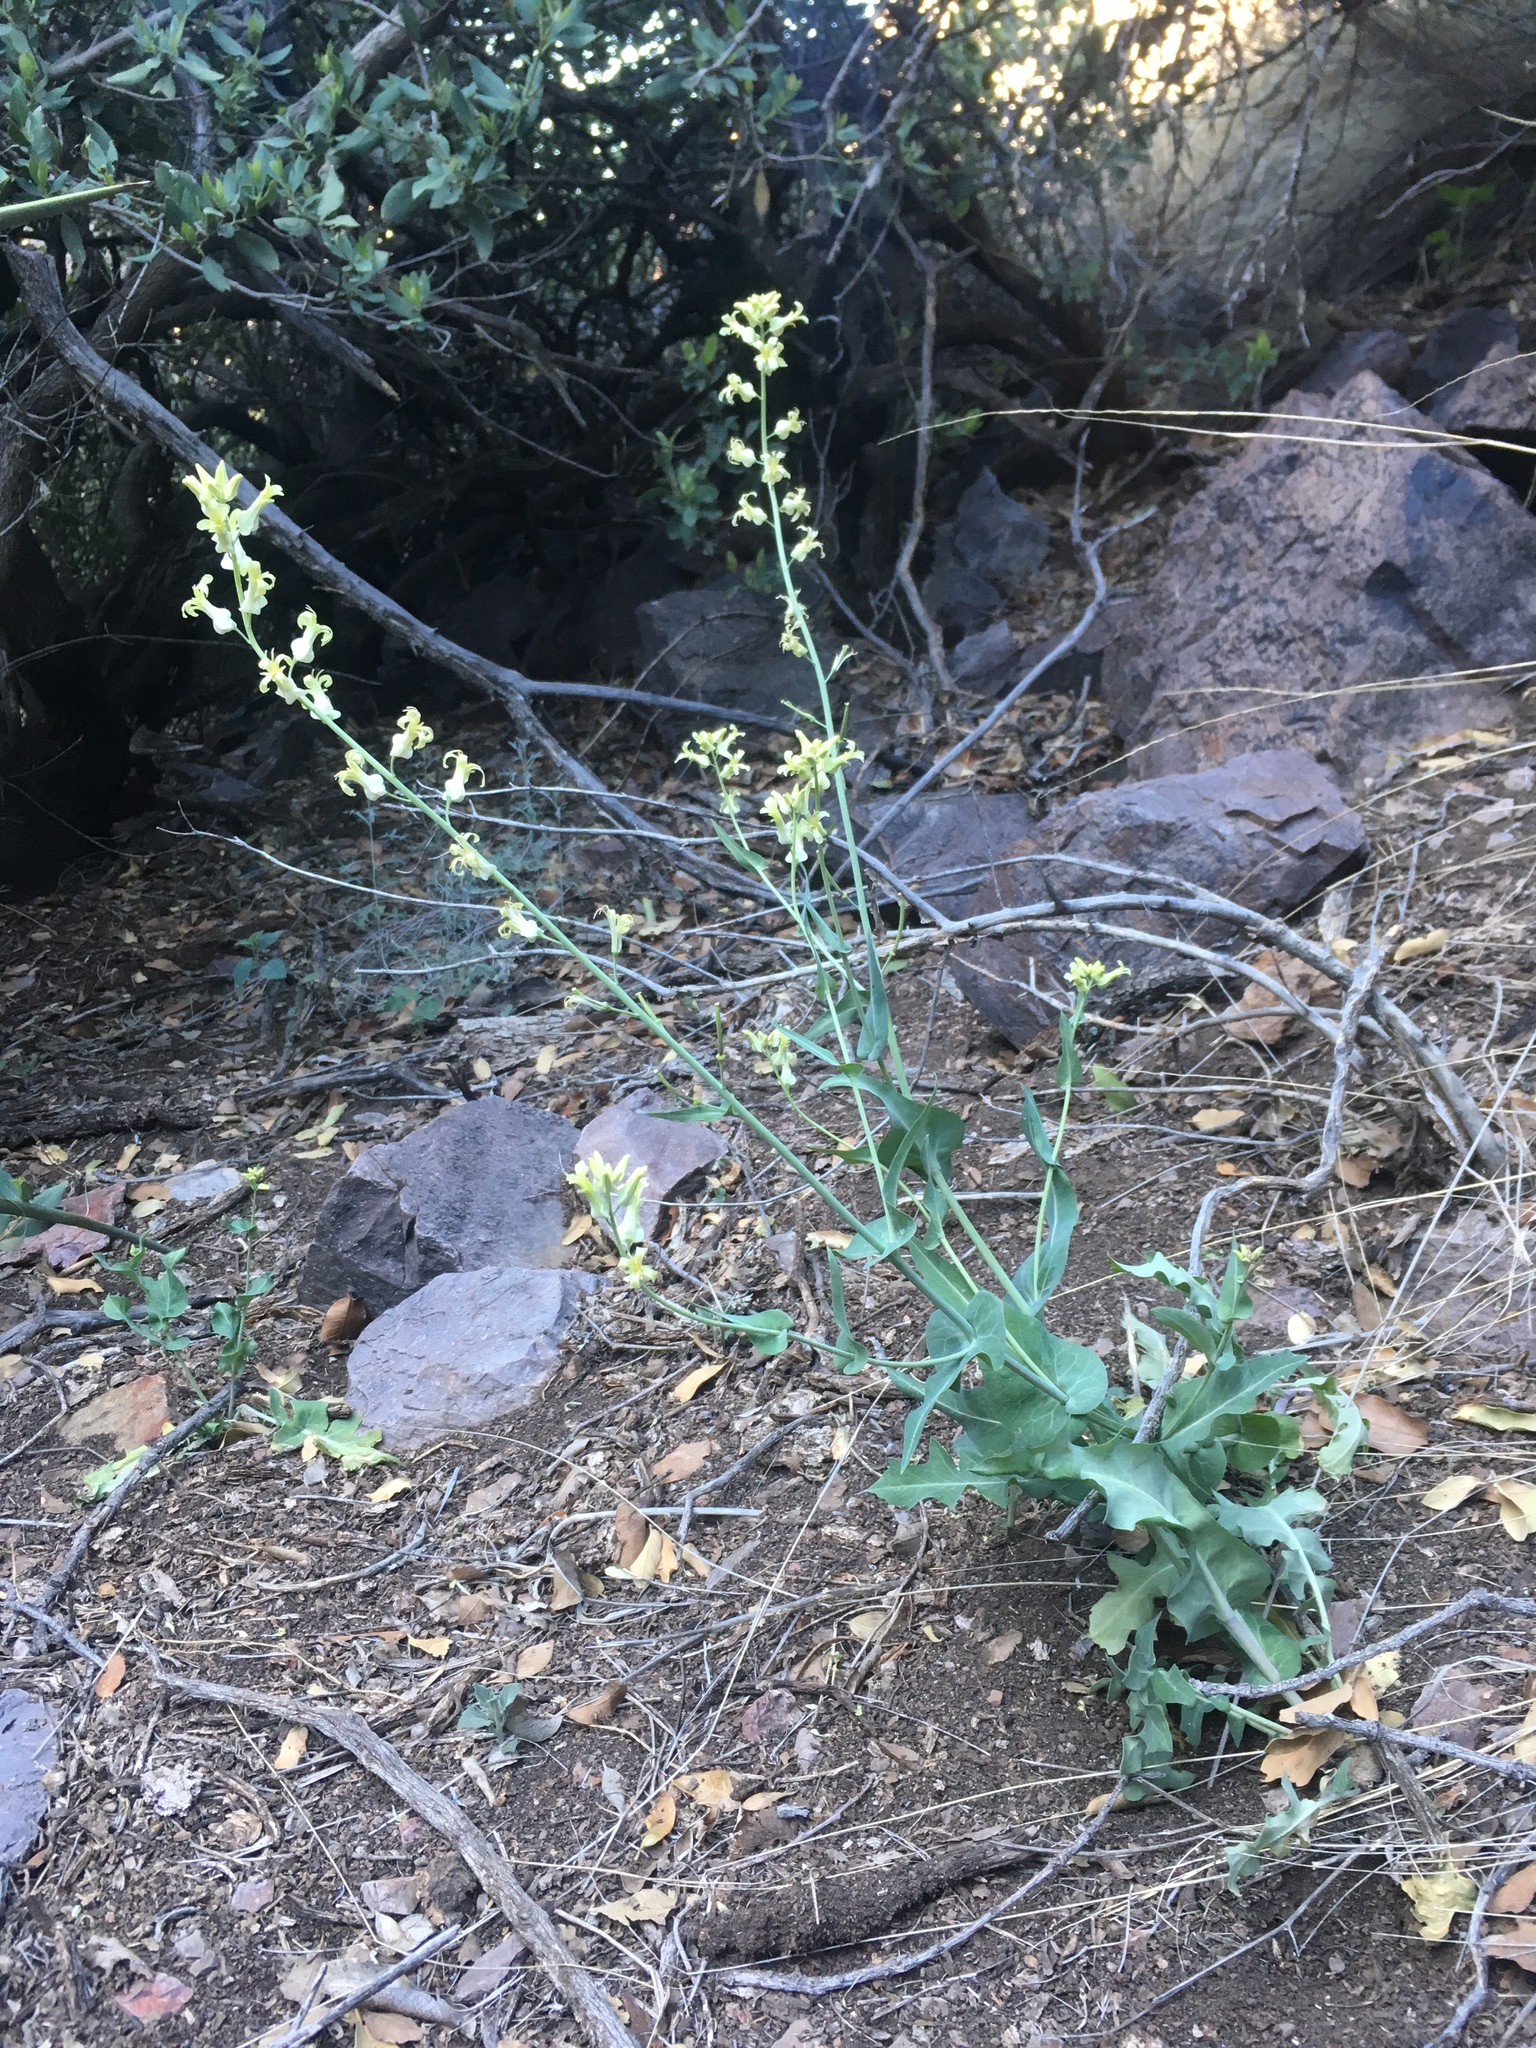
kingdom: Plantae
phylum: Tracheophyta
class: Magnoliopsida
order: Brassicales
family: Brassicaceae
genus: Streptanthus
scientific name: Streptanthus carinatus
